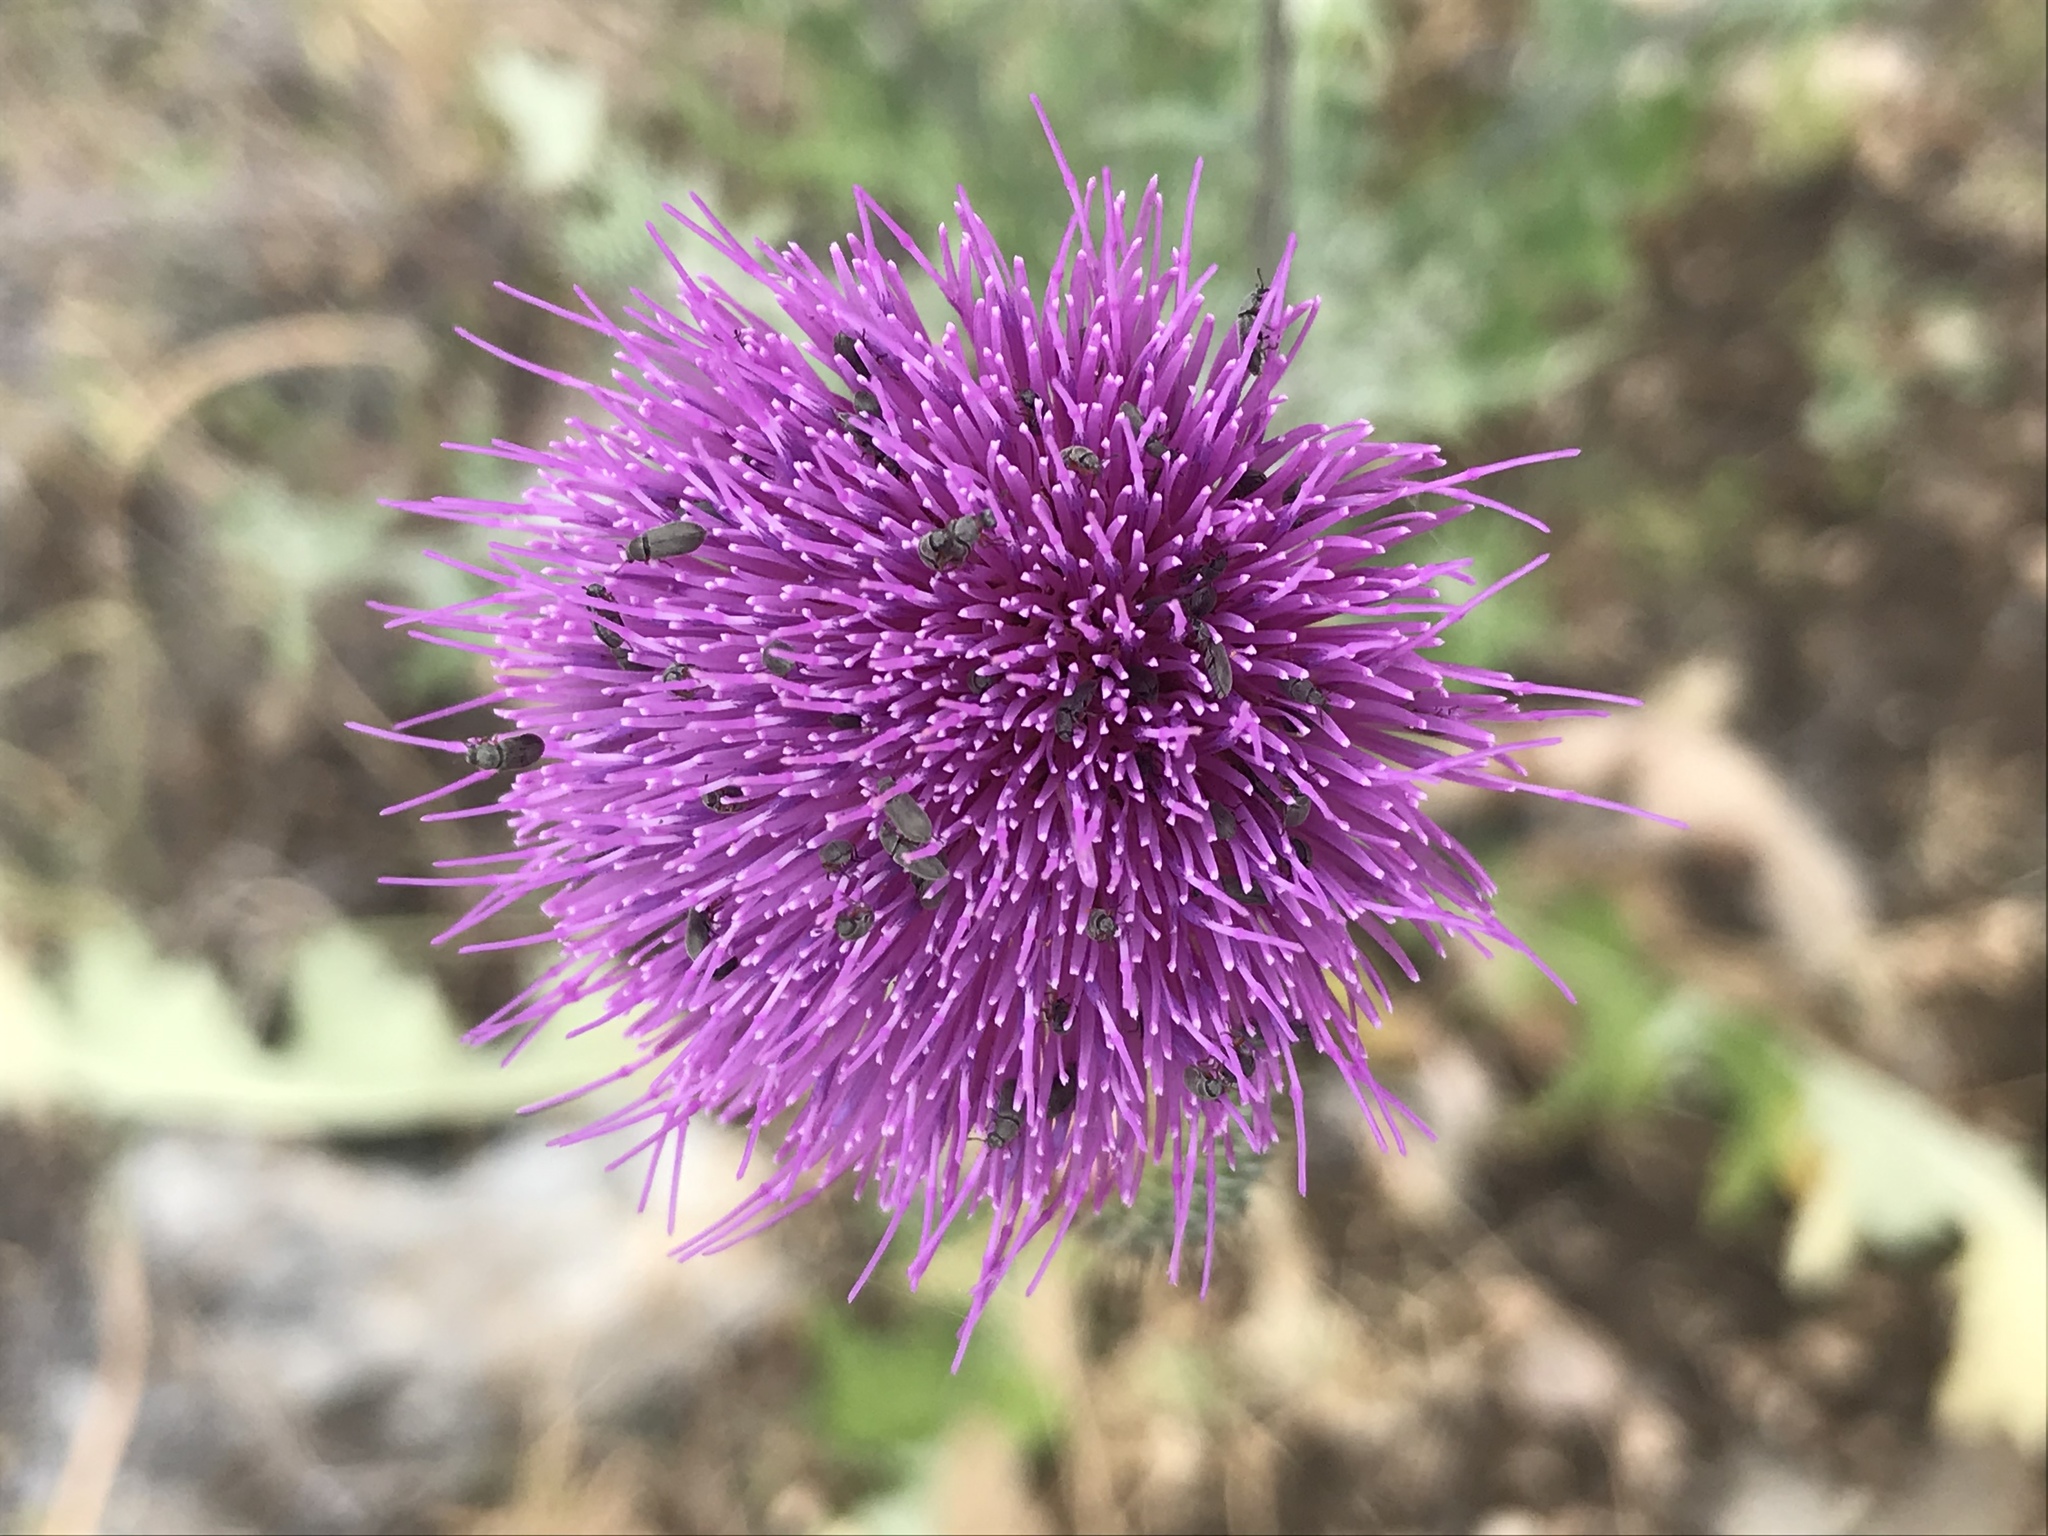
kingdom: Plantae
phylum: Tracheophyta
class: Magnoliopsida
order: Asterales
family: Asteraceae
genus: Cirsium
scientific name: Cirsium texanum
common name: Texas purple thistle
